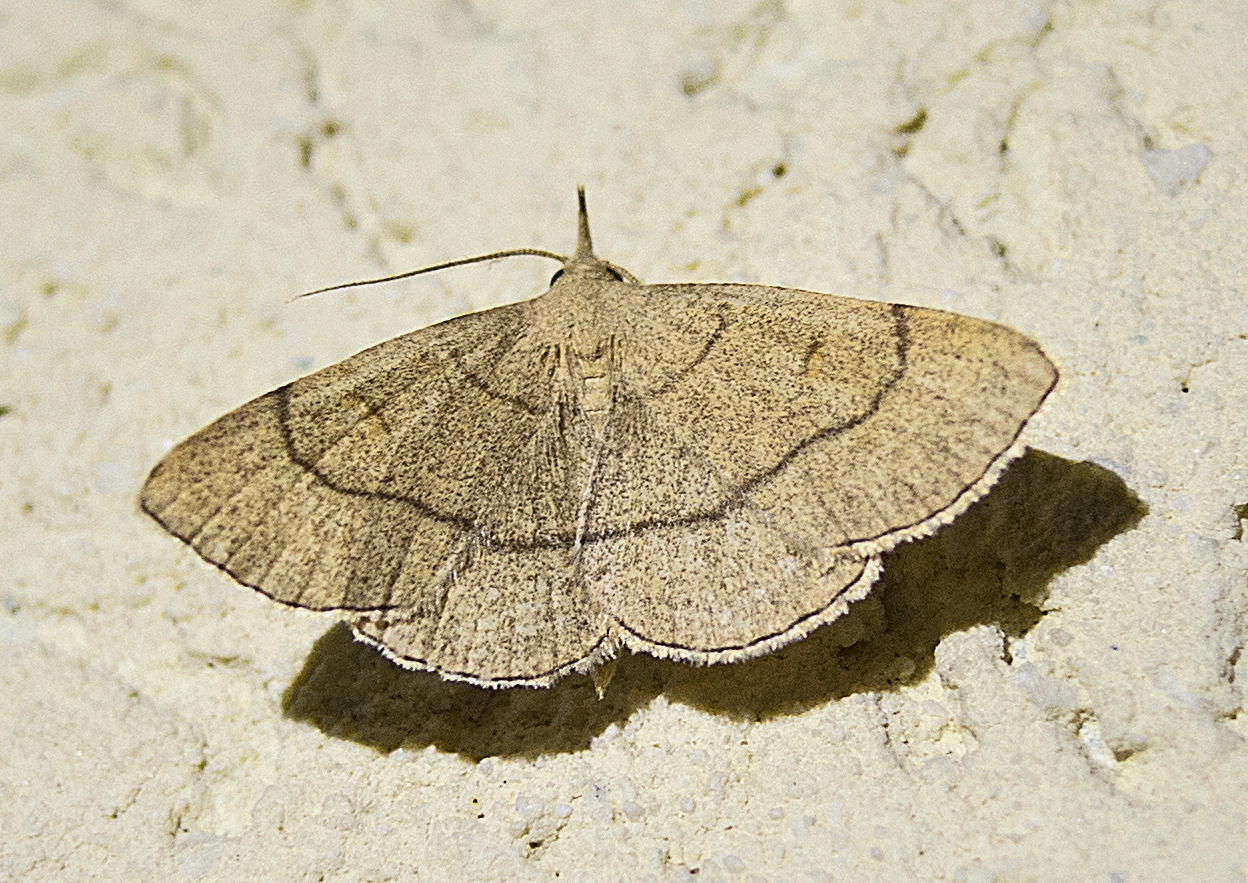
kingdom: Animalia
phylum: Arthropoda
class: Insecta
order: Lepidoptera
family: Erebidae
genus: Paracolax
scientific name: Paracolax tristalis
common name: Clay fan-foot
